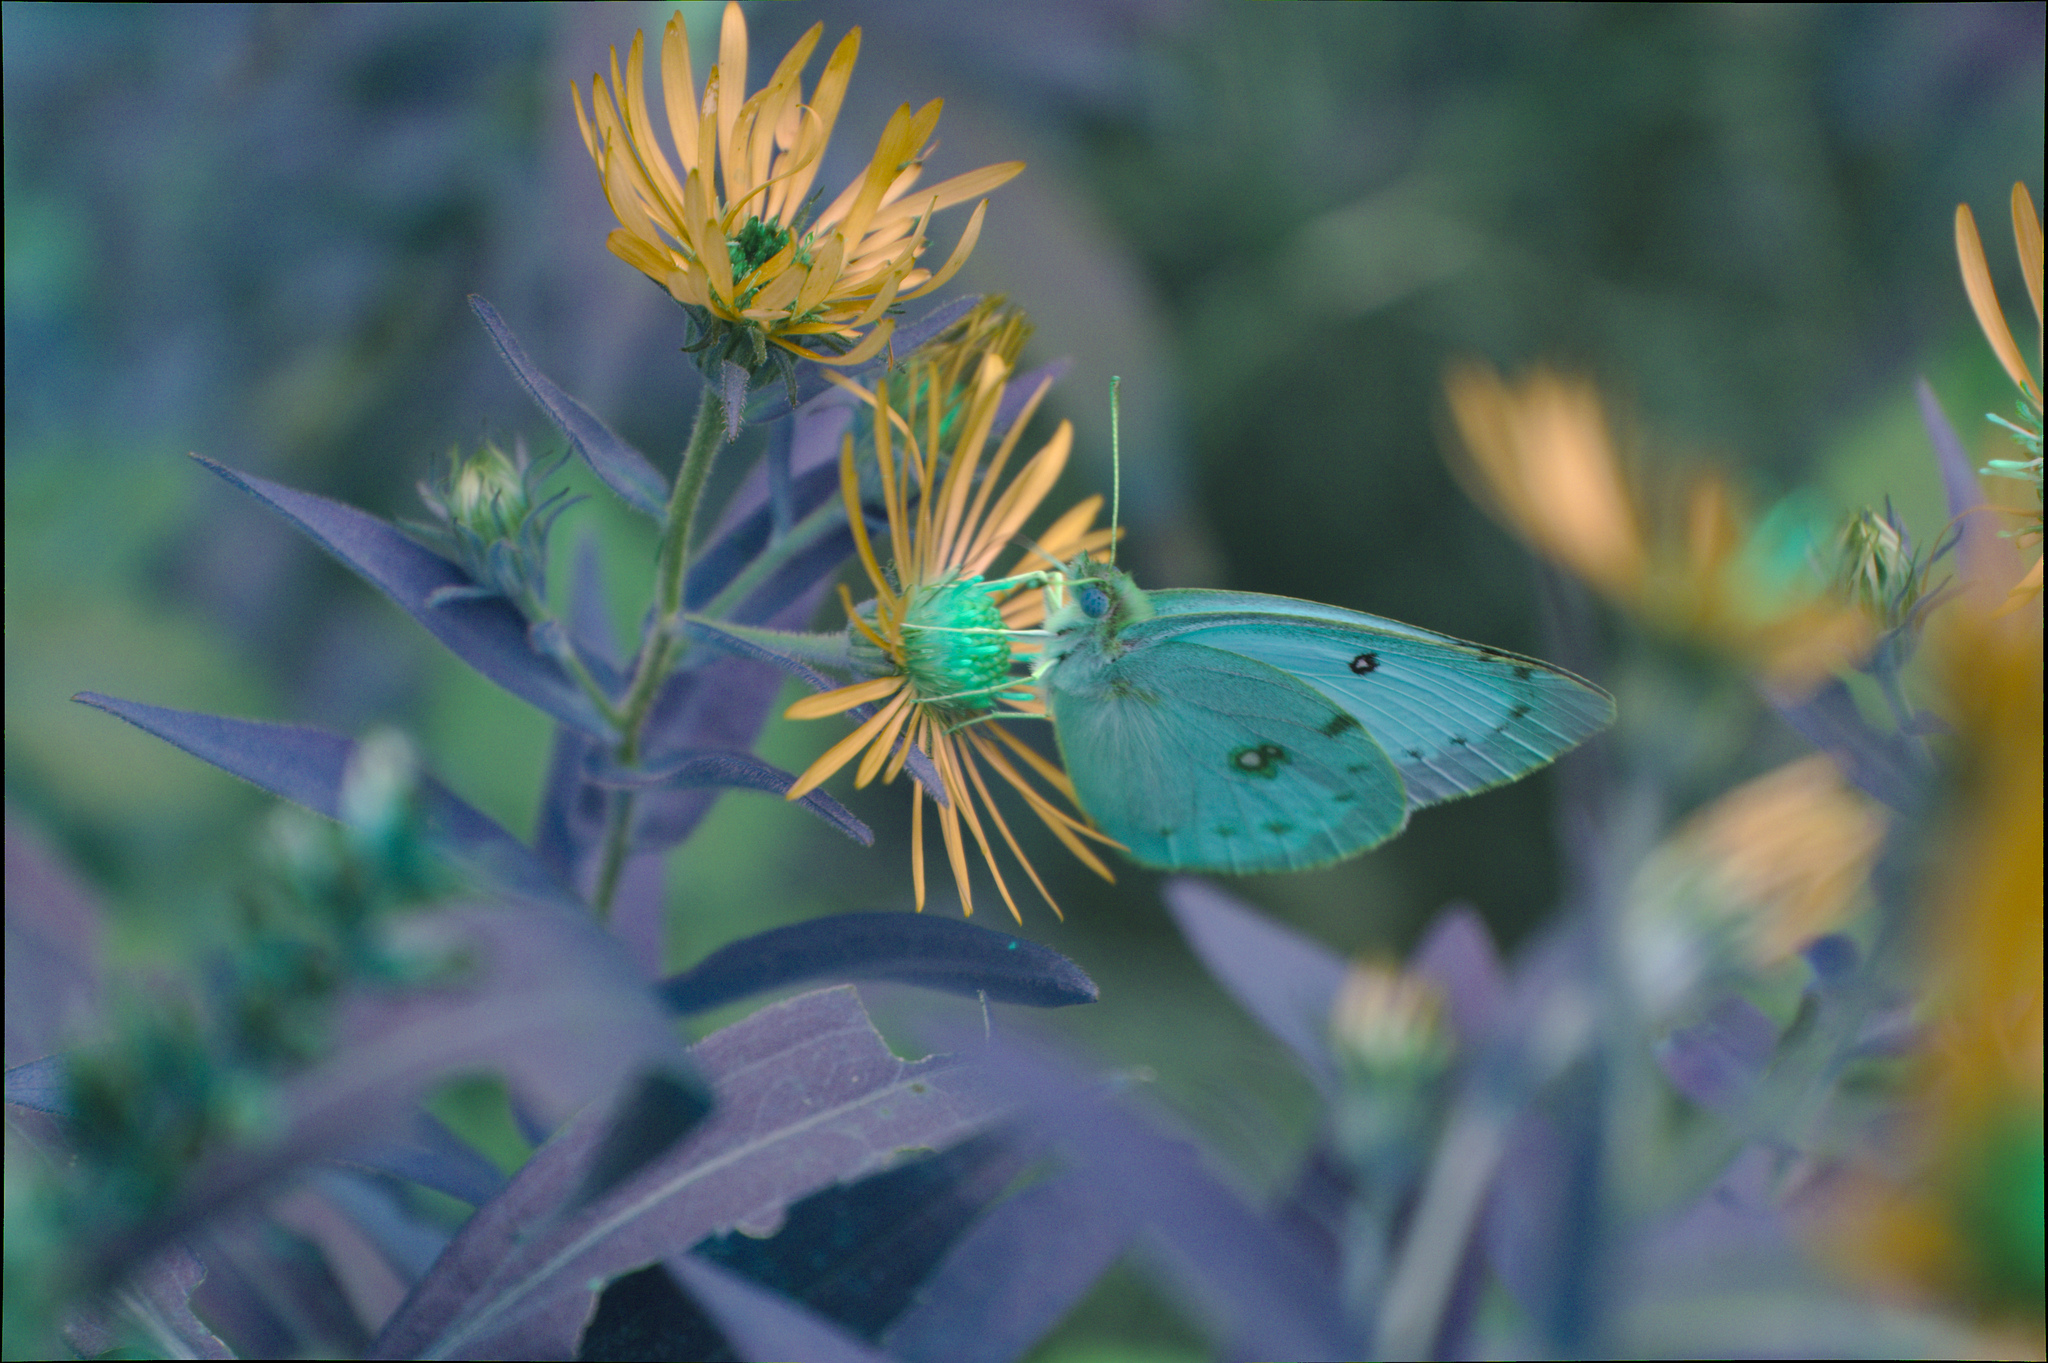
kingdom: Animalia
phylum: Arthropoda
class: Insecta
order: Lepidoptera
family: Pieridae
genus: Colias
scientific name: Colias philodice
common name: Clouded sulphur
